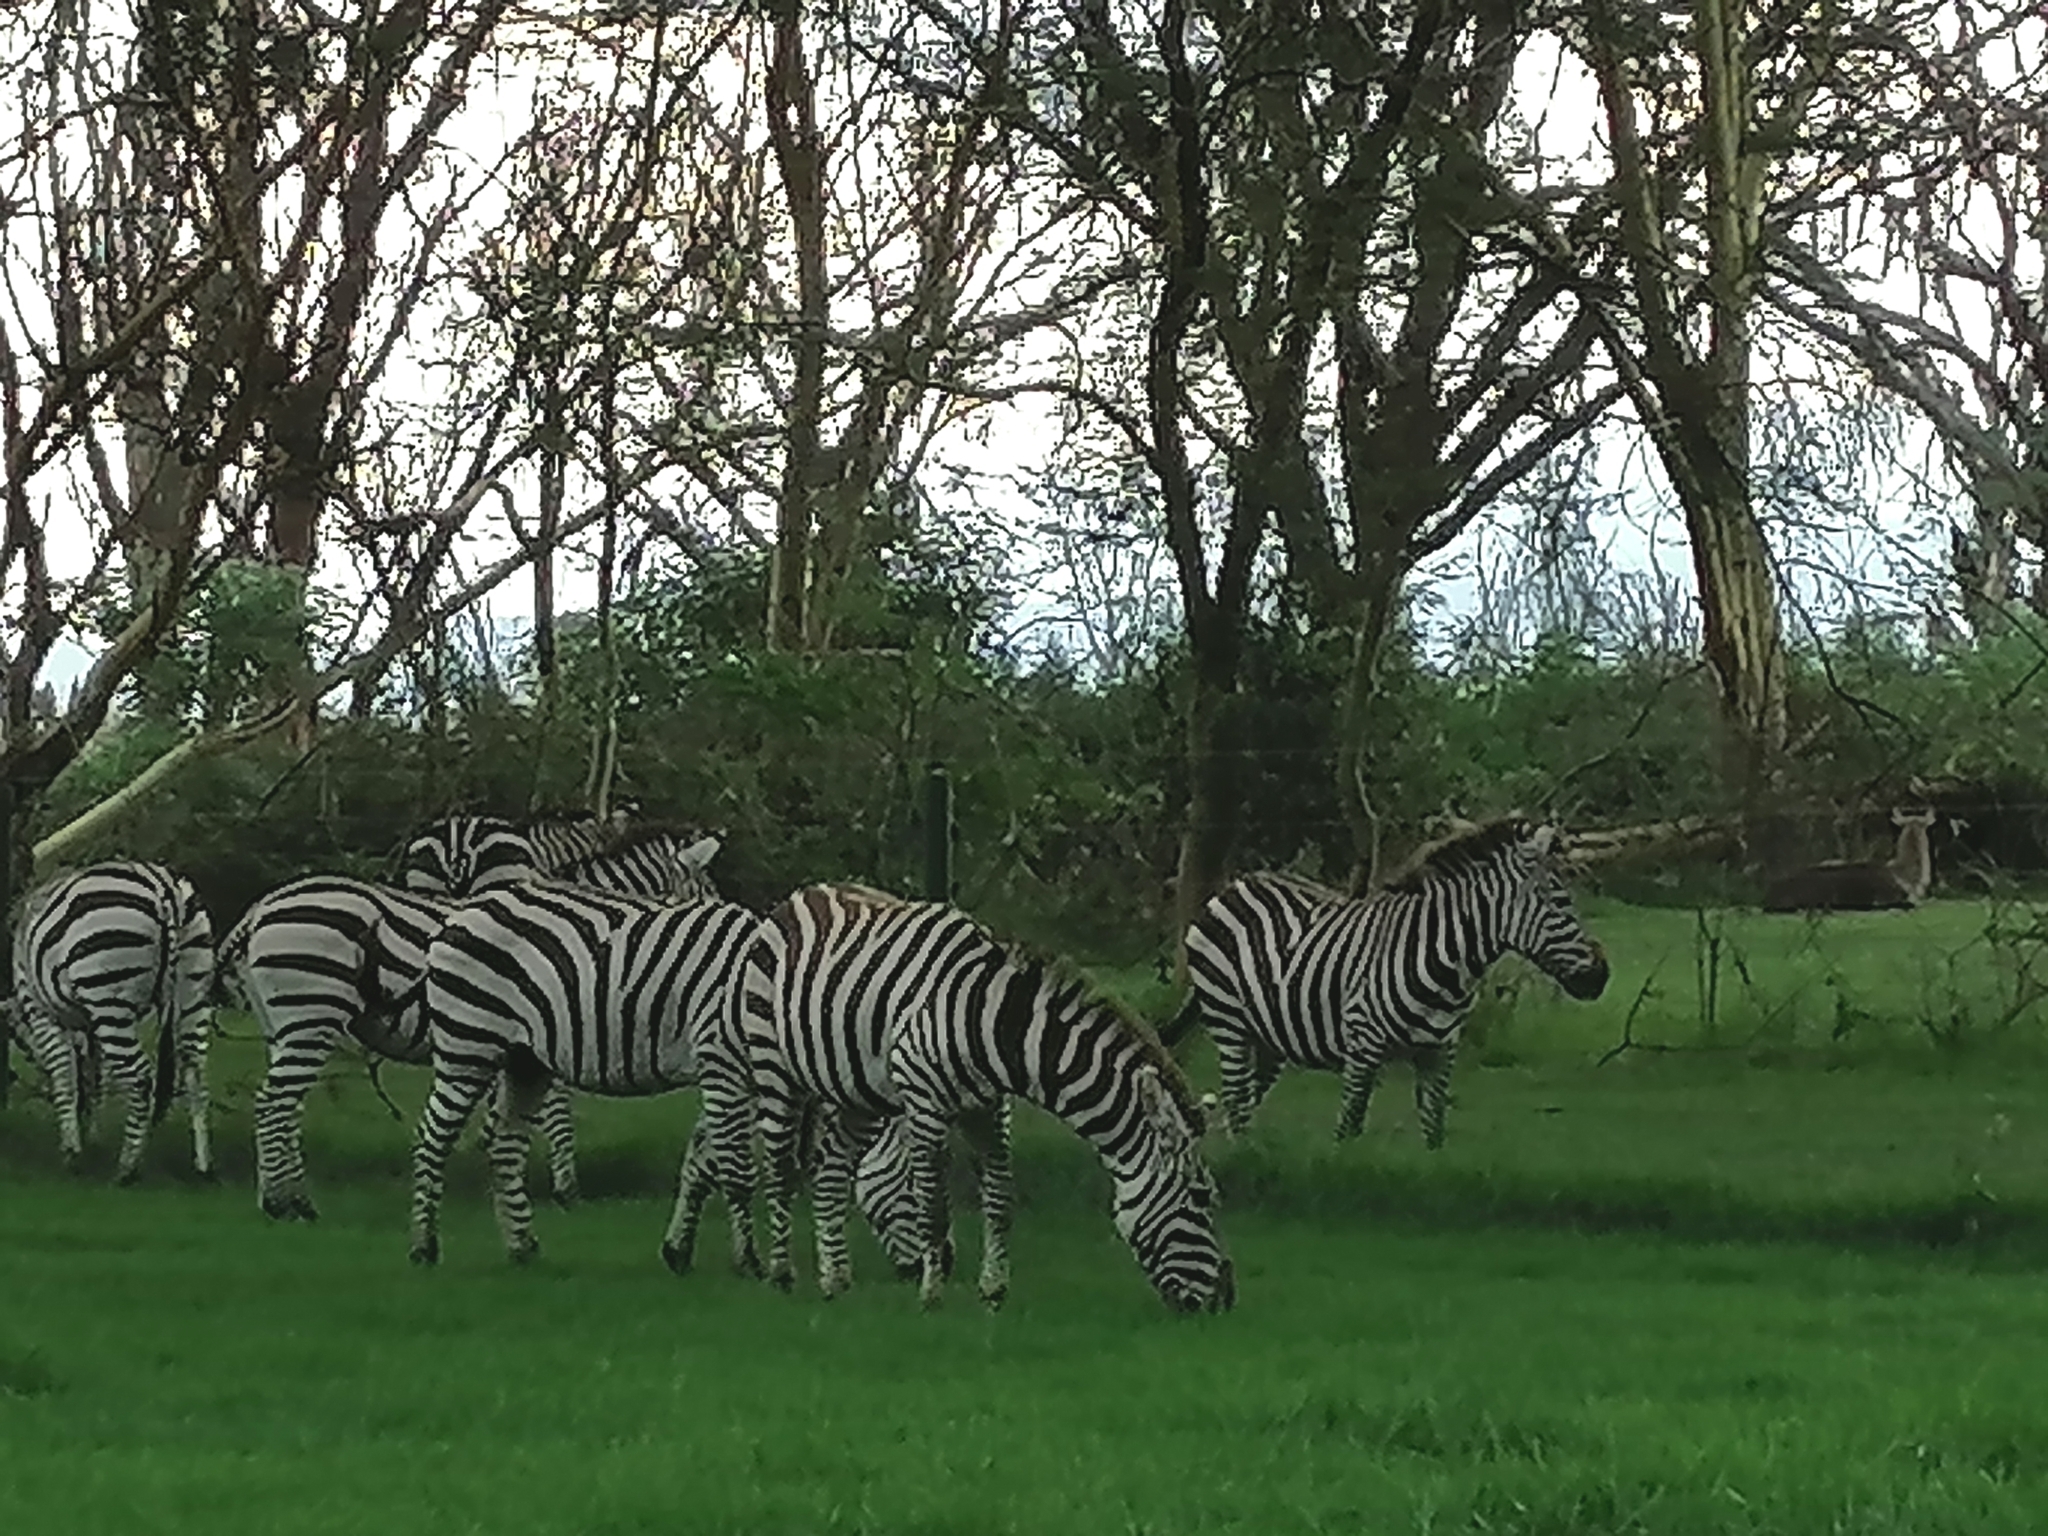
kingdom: Animalia
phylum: Chordata
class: Mammalia
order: Perissodactyla
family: Equidae
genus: Equus
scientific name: Equus quagga
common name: Plains zebra
